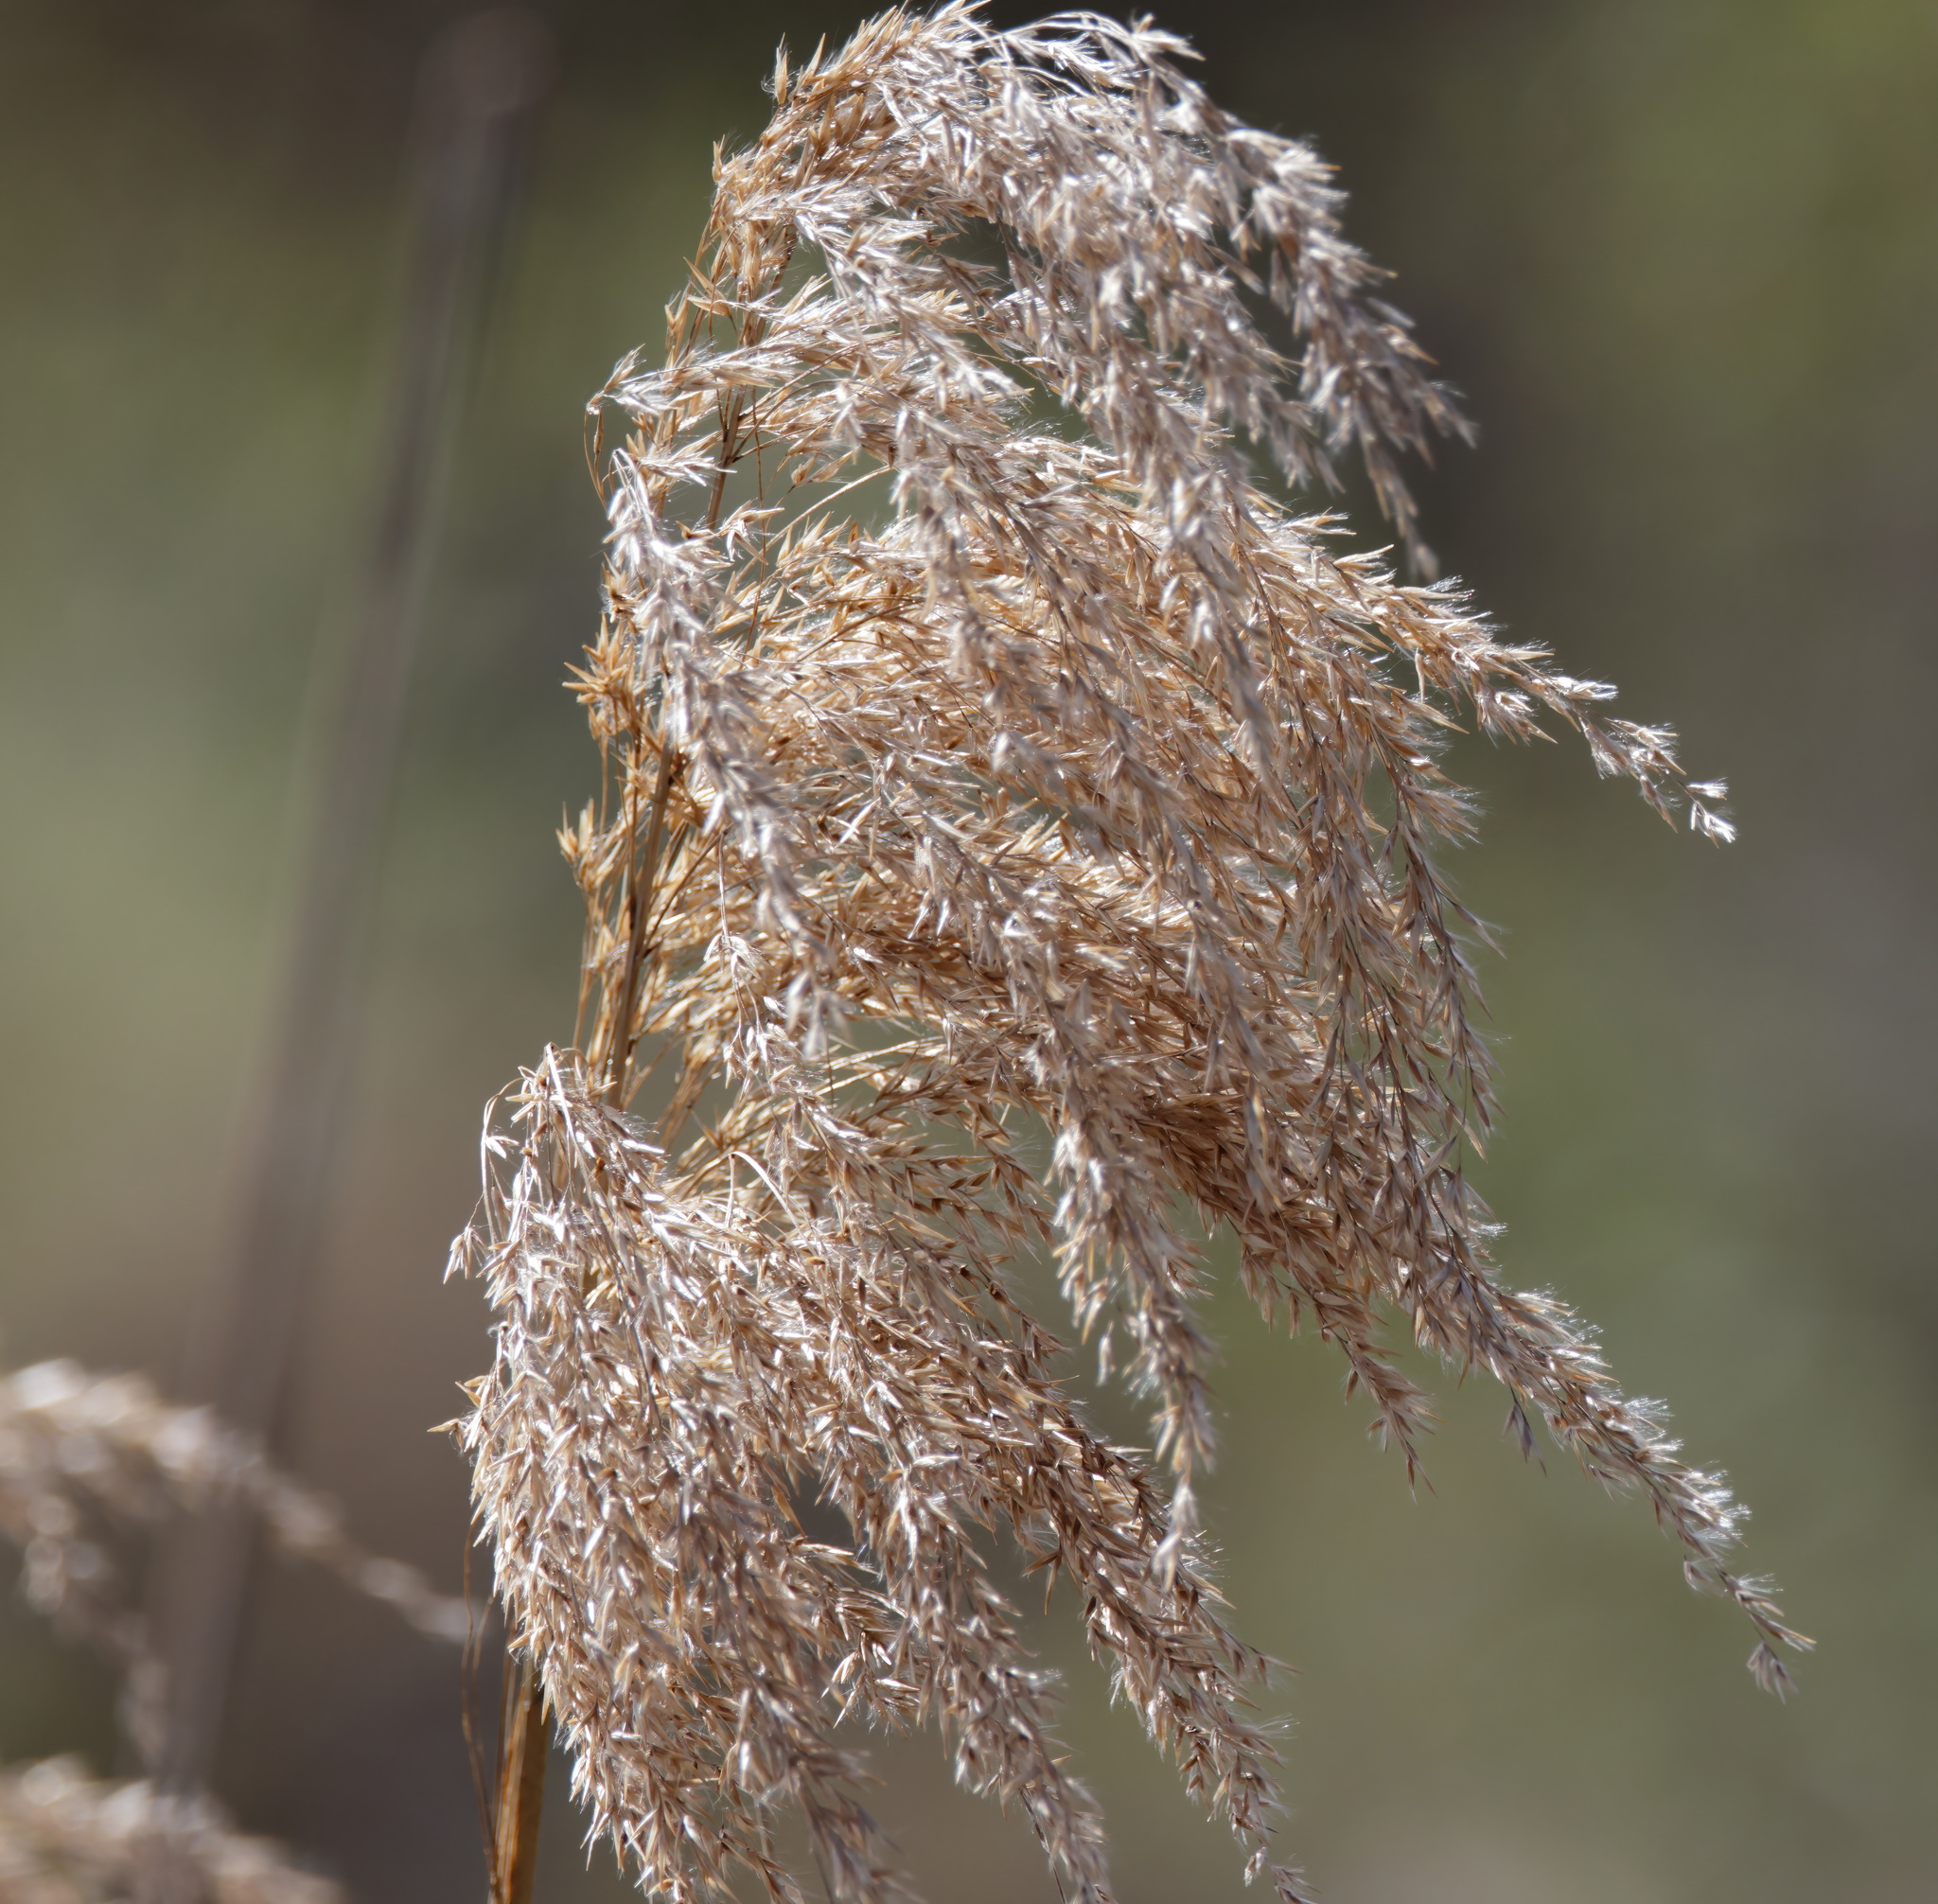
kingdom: Plantae
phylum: Tracheophyta
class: Liliopsida
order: Poales
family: Poaceae
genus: Phragmites
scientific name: Phragmites australis
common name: Common reed
